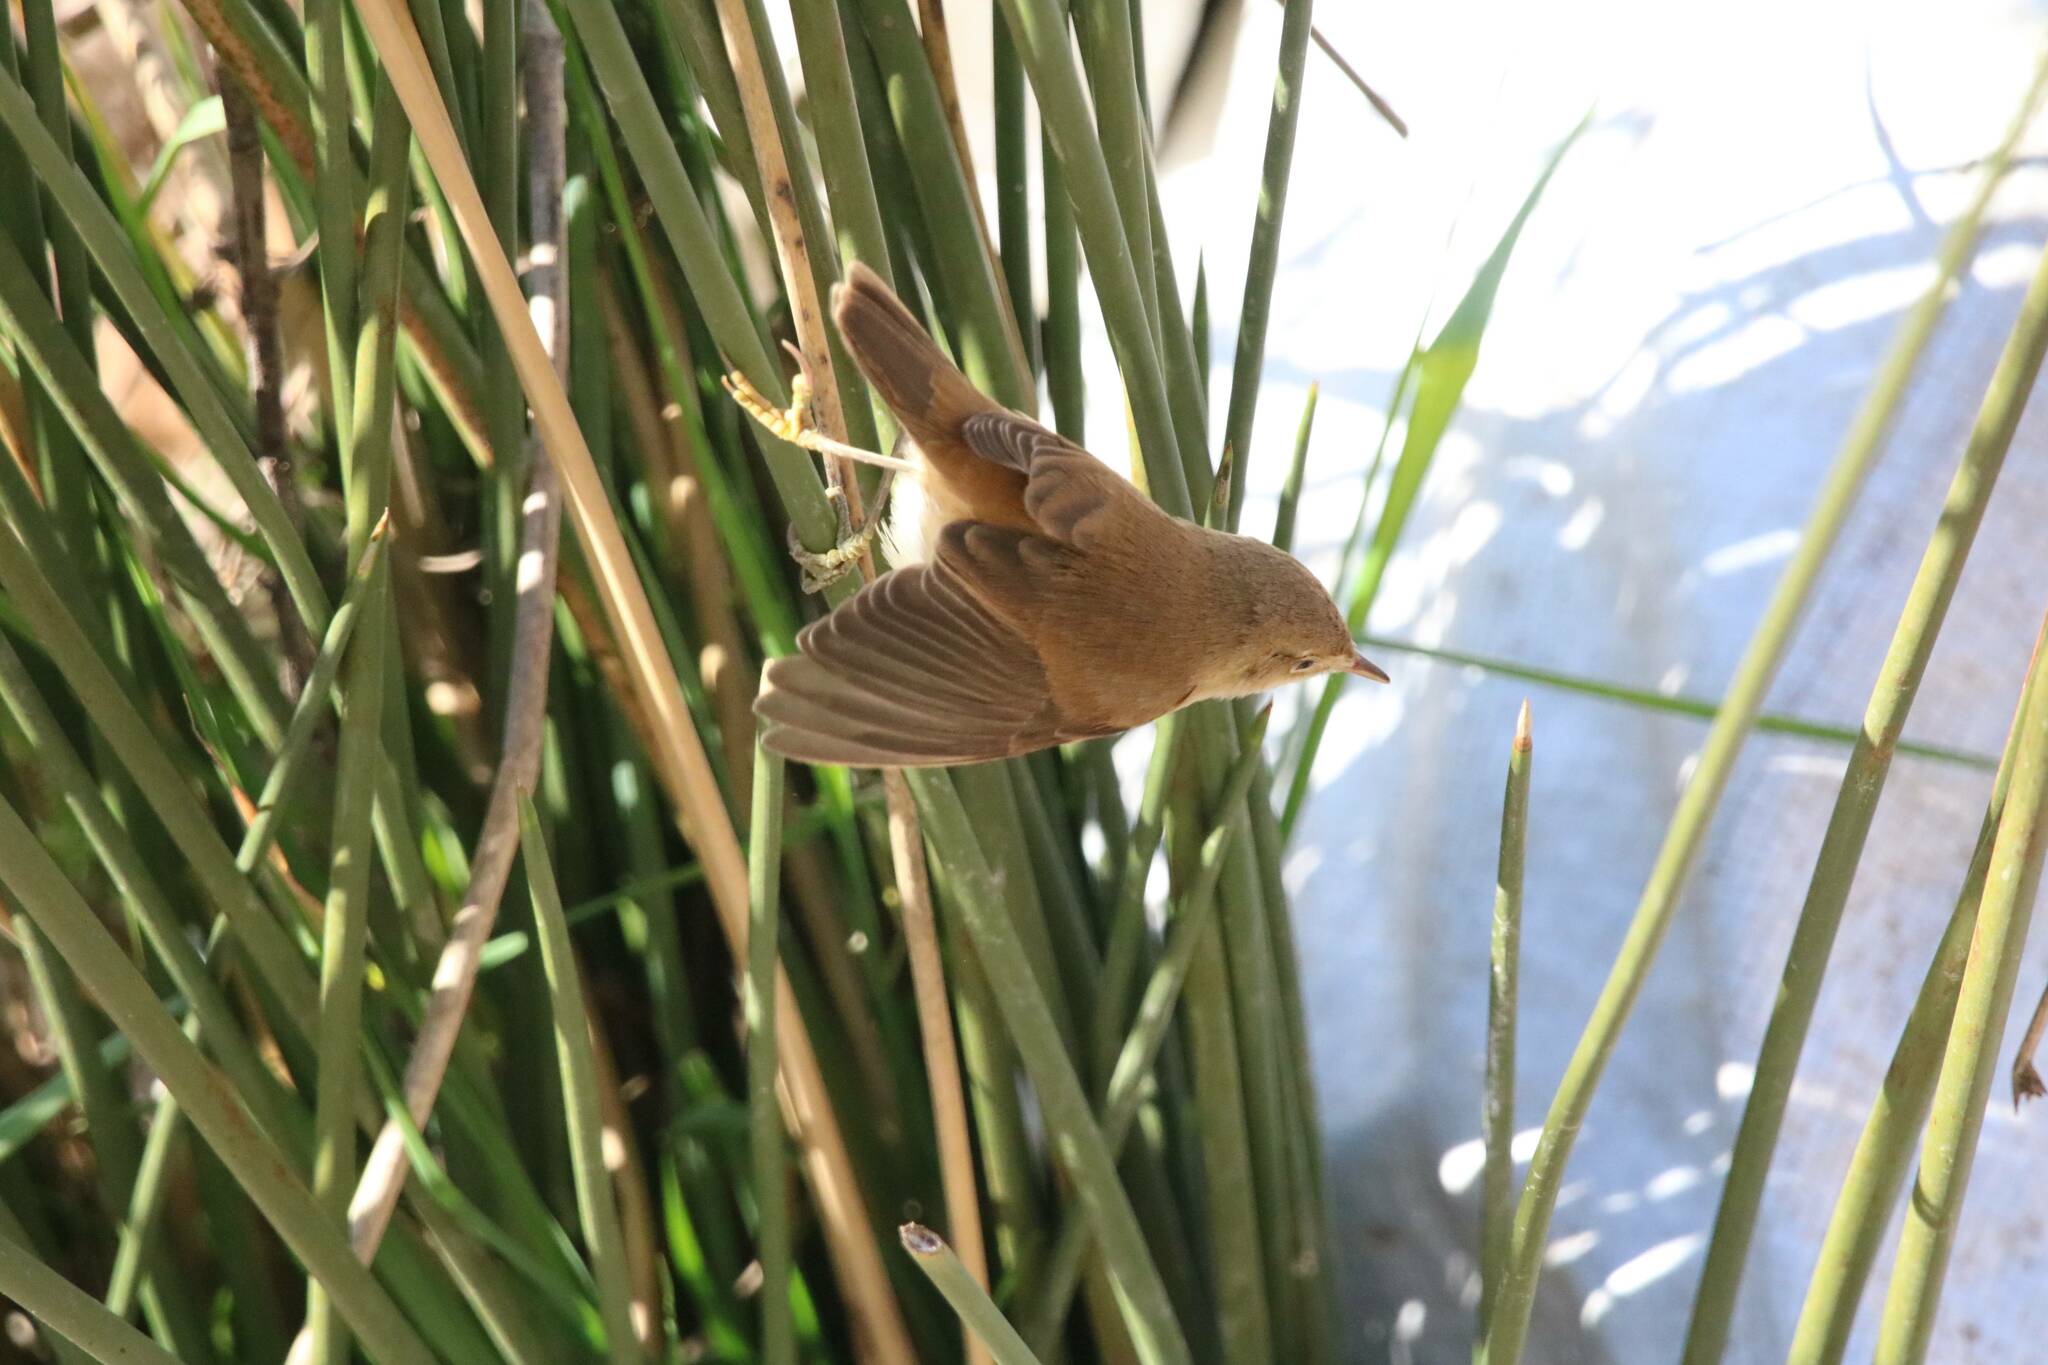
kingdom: Animalia
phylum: Chordata
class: Aves
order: Passeriformes
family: Acrocephalidae
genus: Acrocephalus
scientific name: Acrocephalus scirpaceus
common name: Eurasian reed warbler
